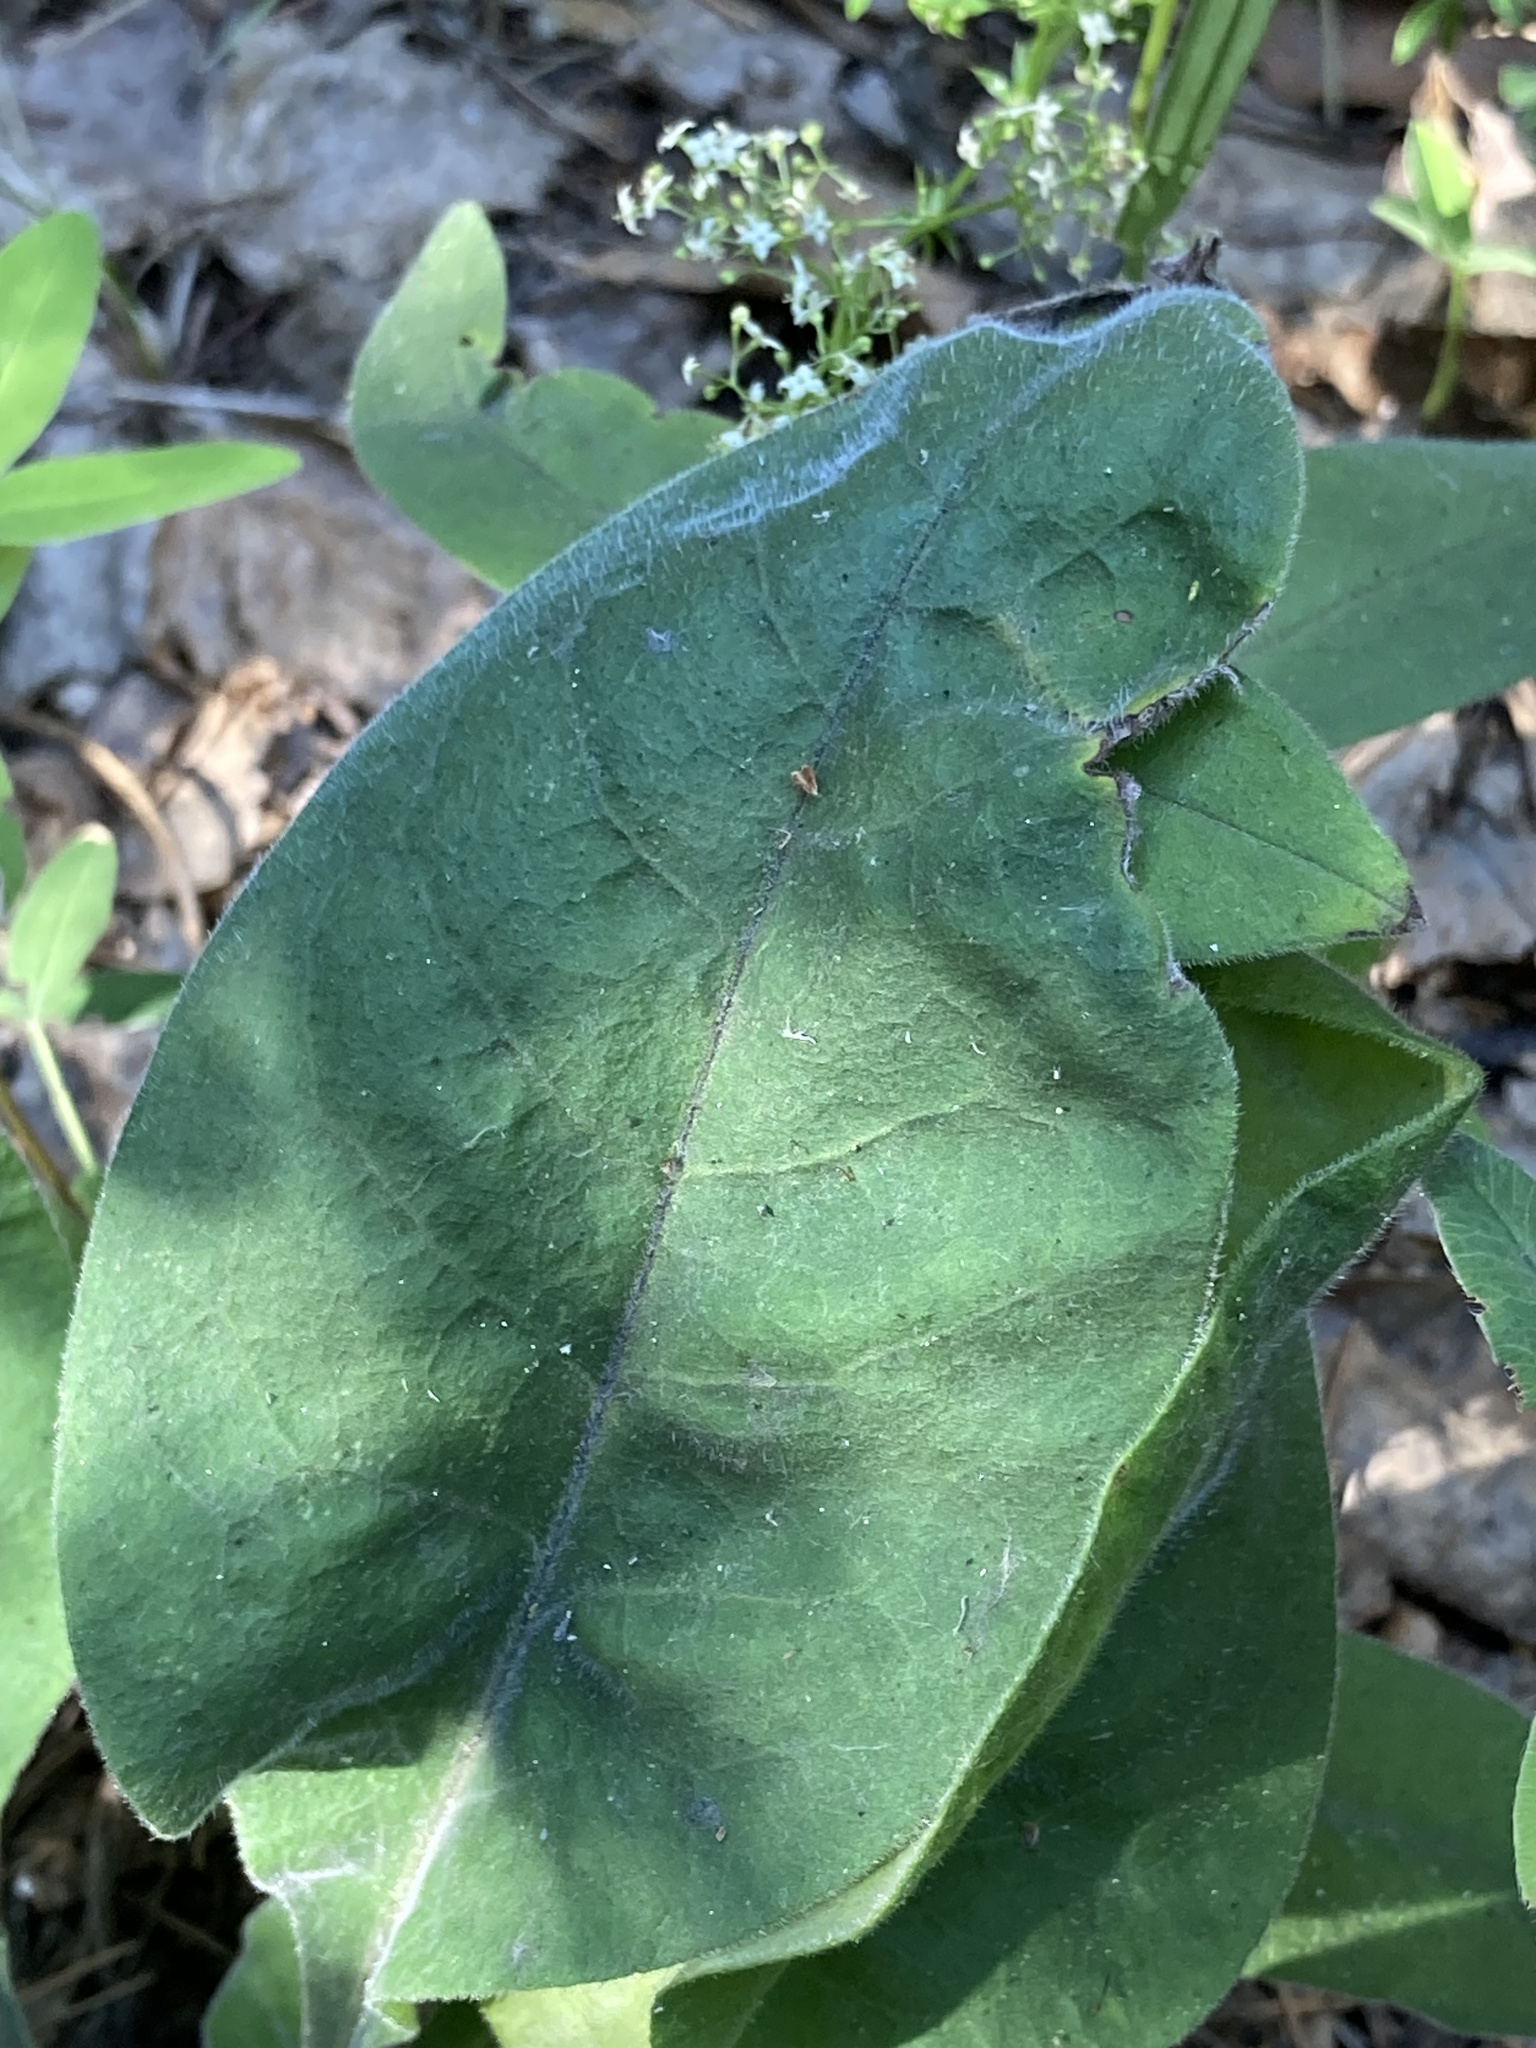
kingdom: Plantae
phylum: Tracheophyta
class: Magnoliopsida
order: Boraginales
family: Boraginaceae
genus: Pulmonaria
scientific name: Pulmonaria mollis
